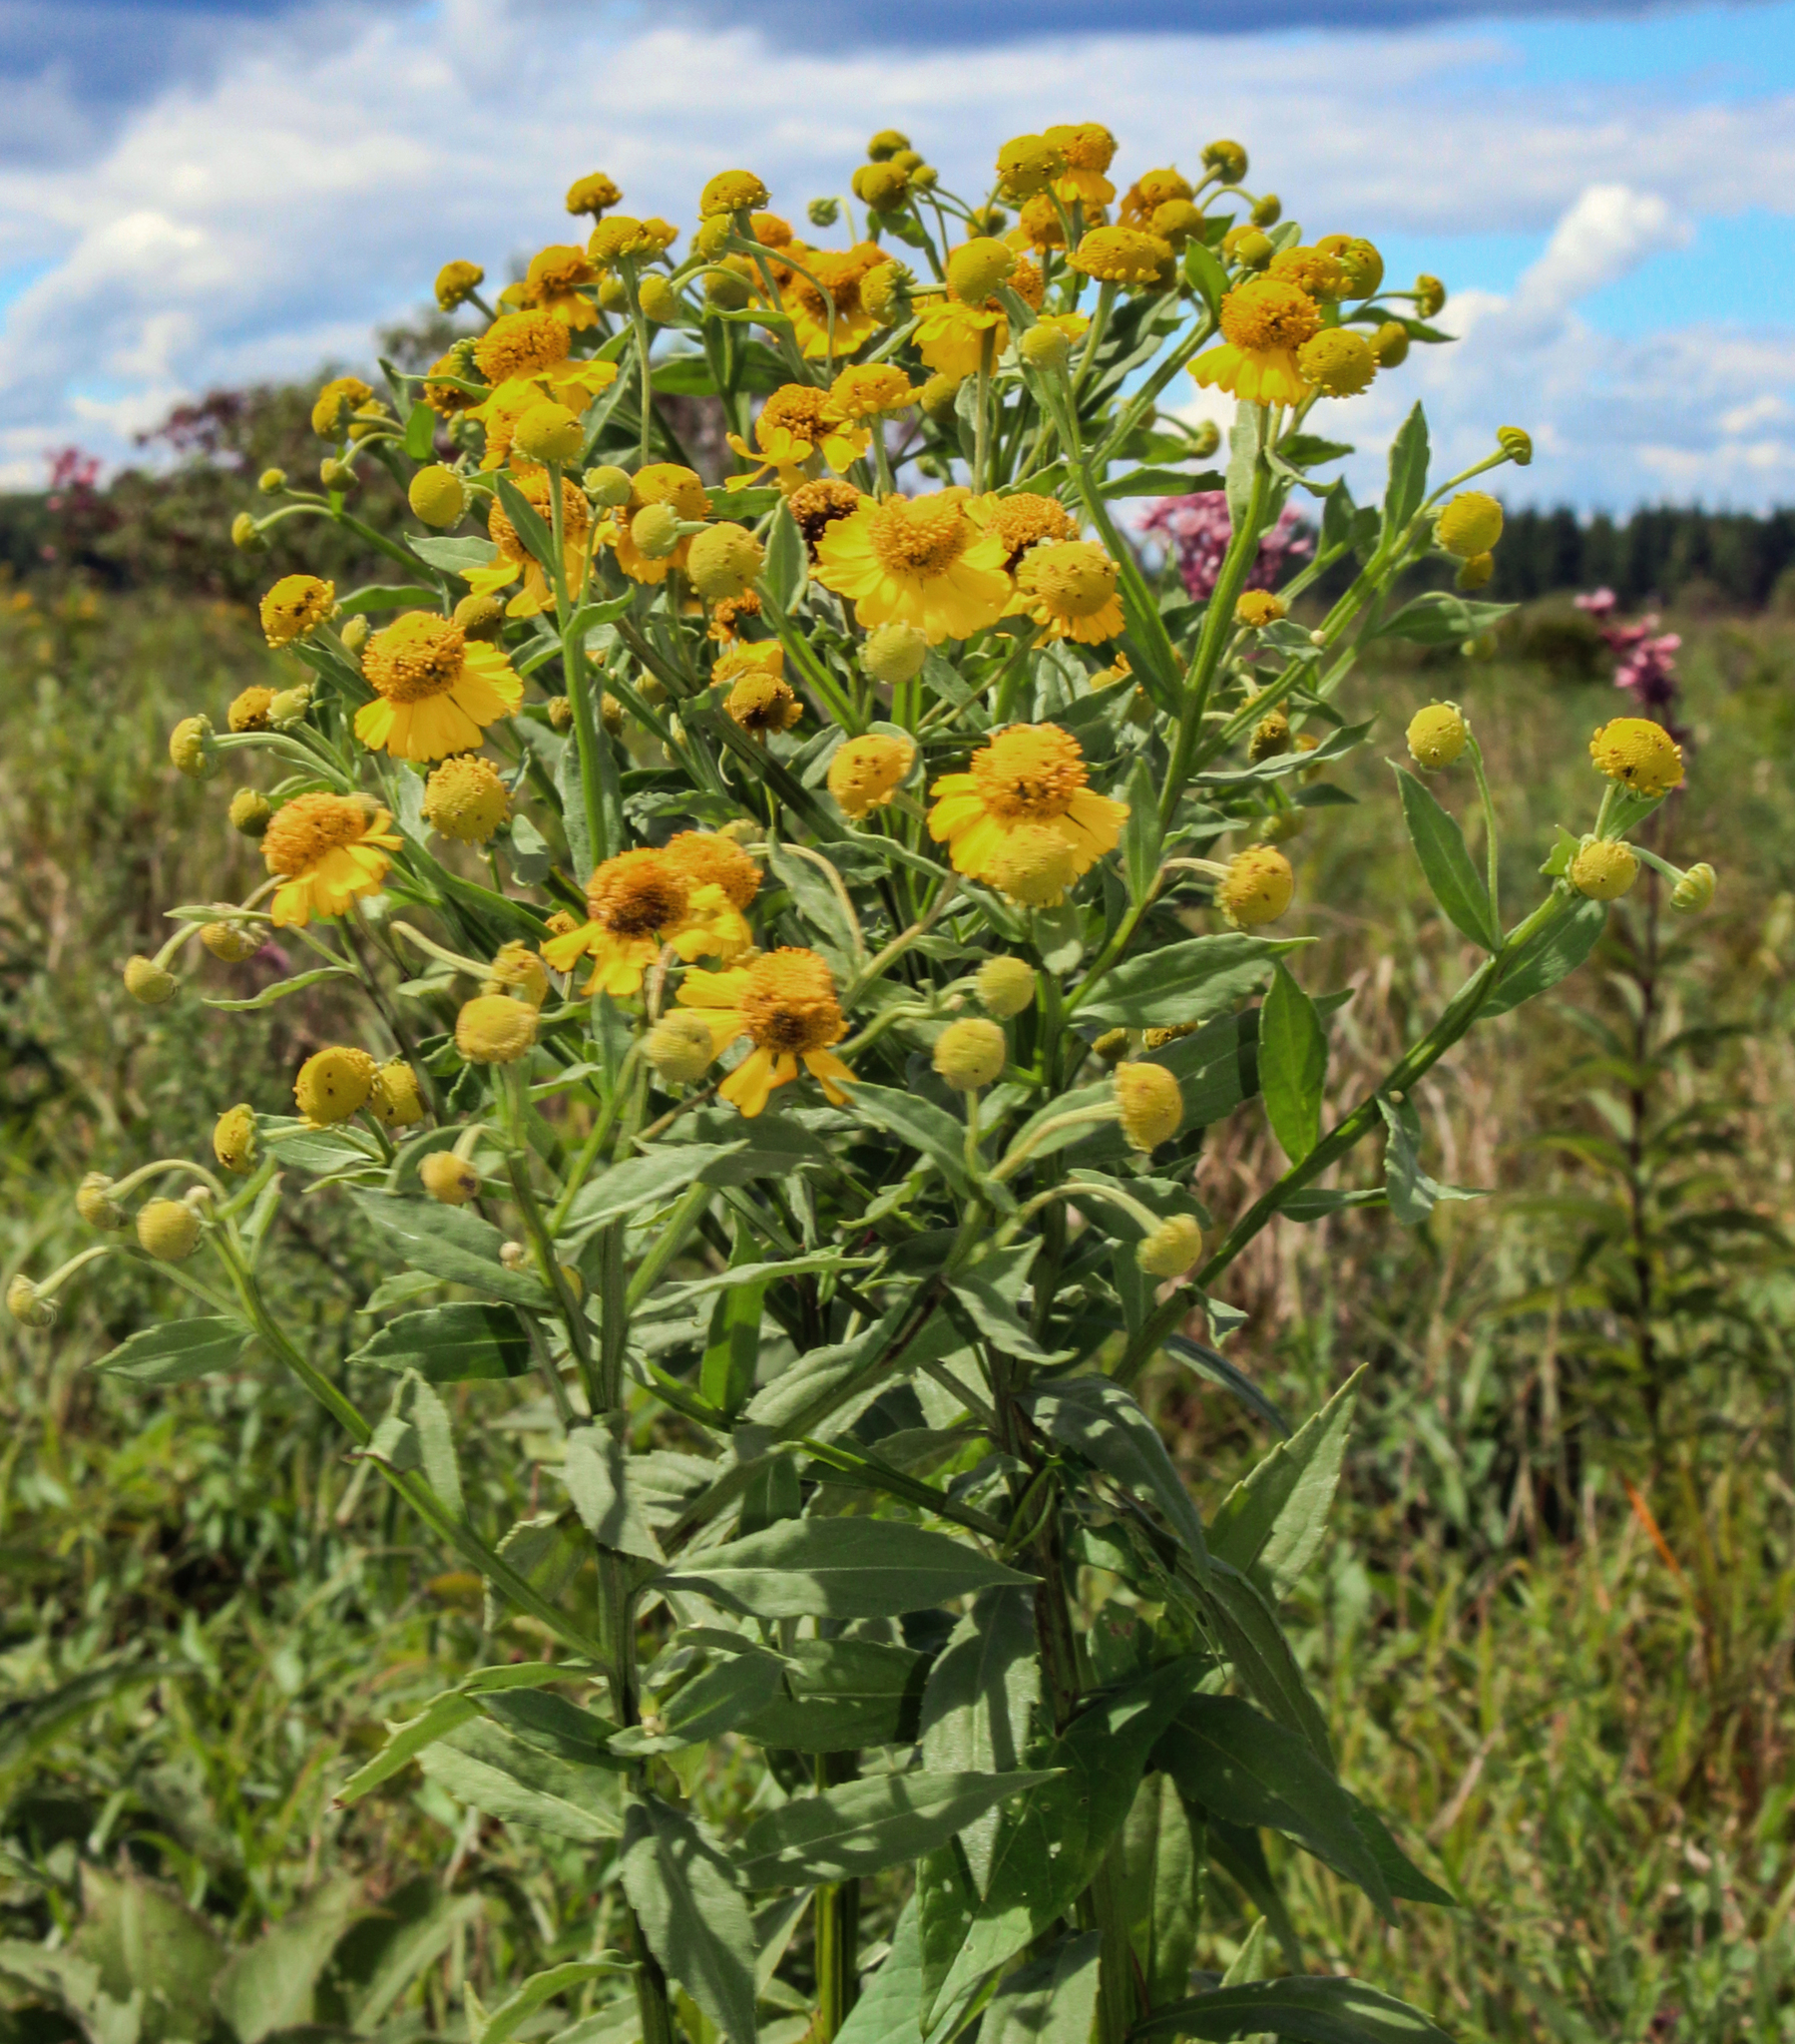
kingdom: Plantae
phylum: Tracheophyta
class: Magnoliopsida
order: Asterales
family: Asteraceae
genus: Helenium
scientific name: Helenium autumnale
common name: Sneezeweed
